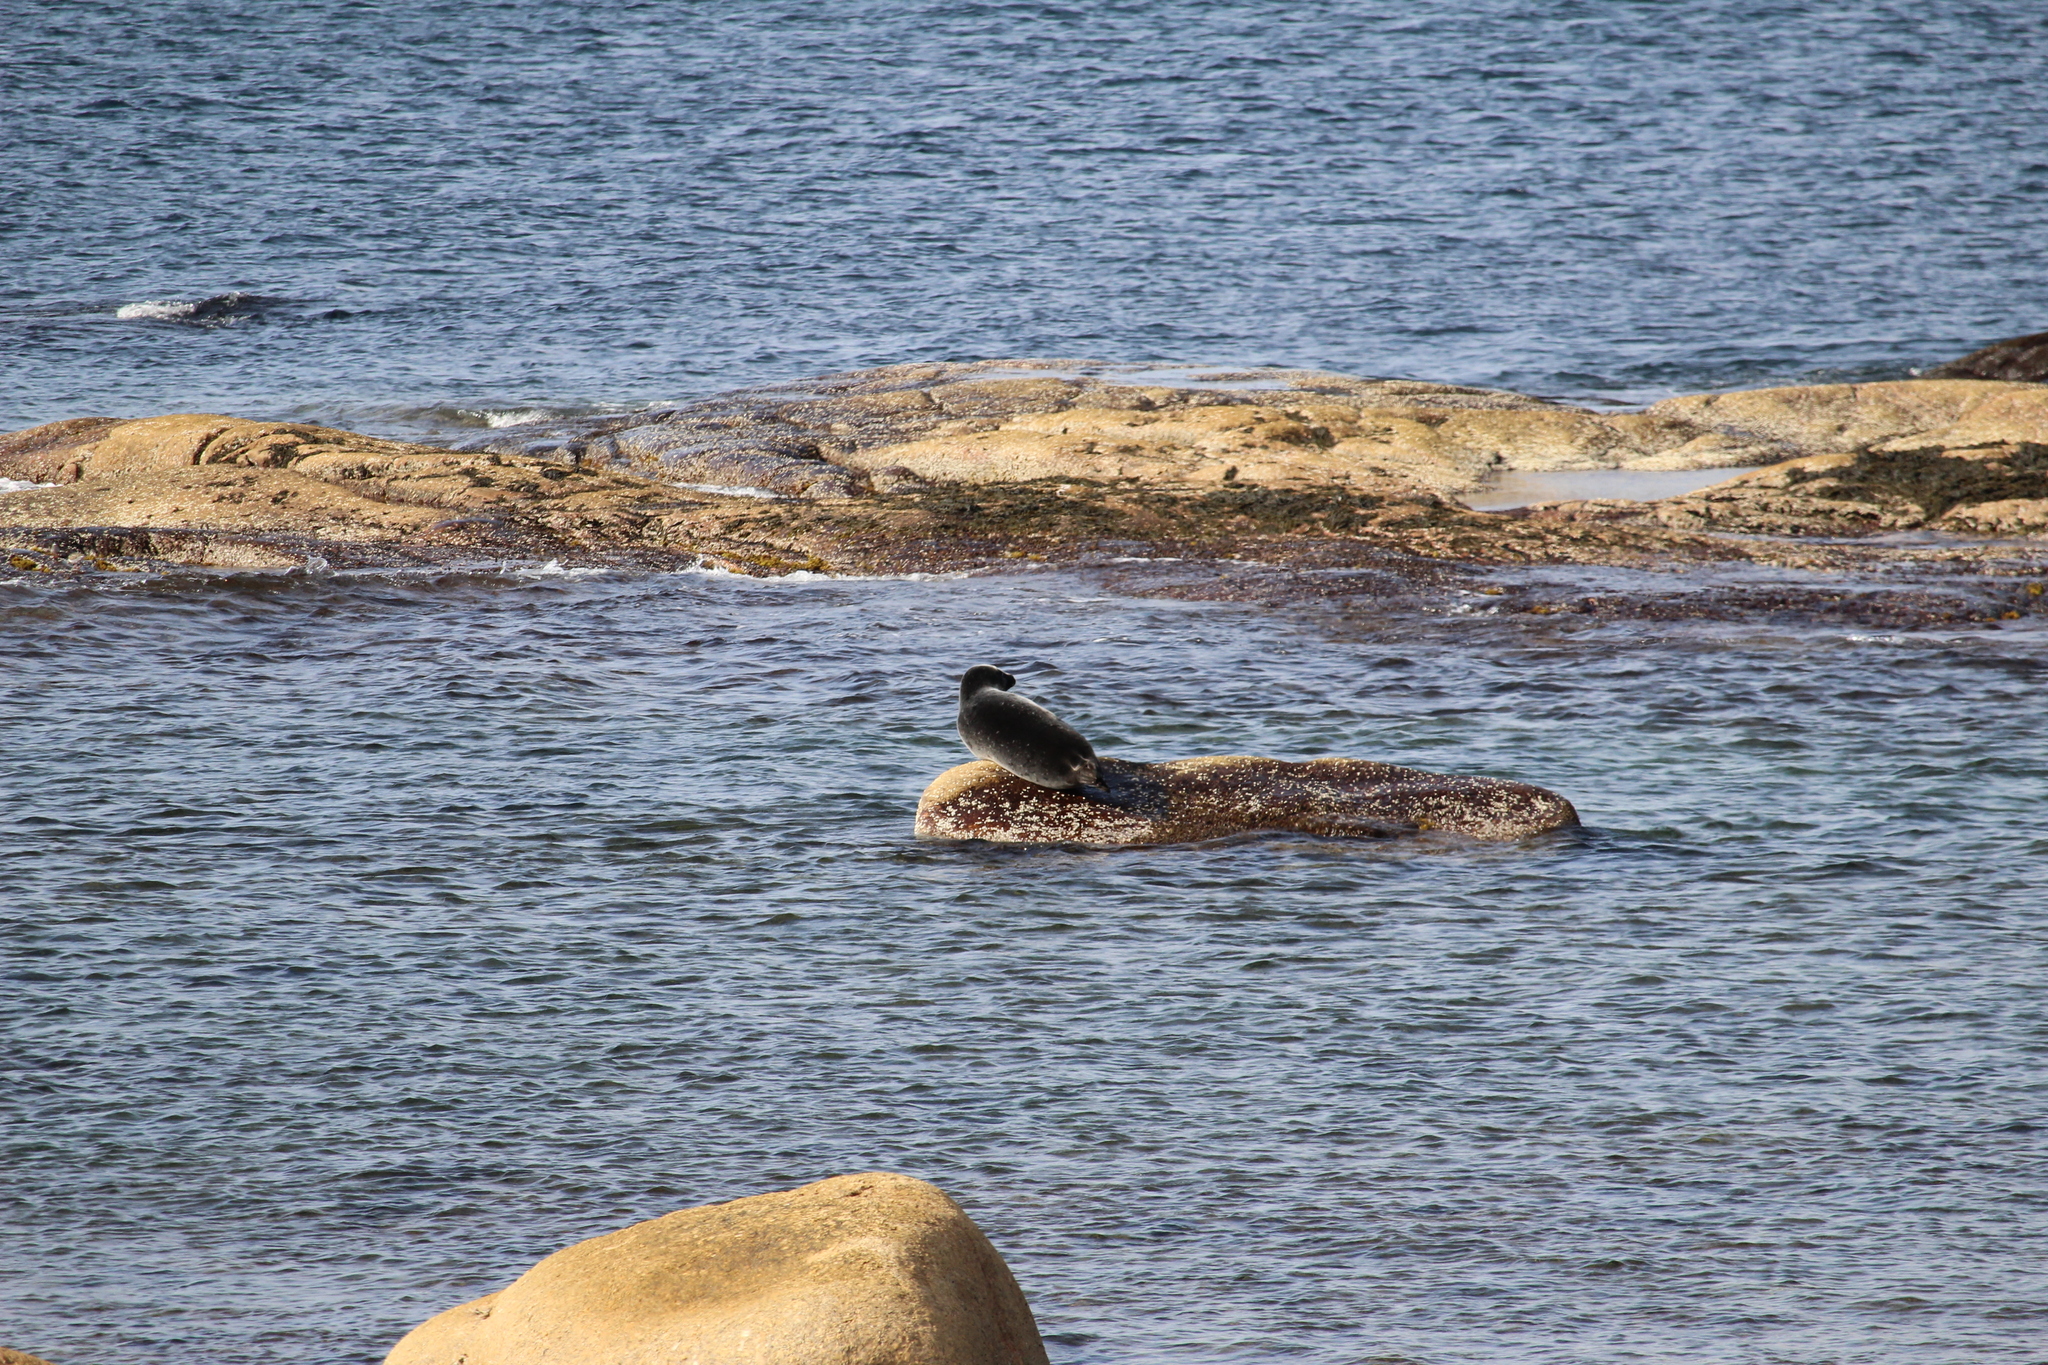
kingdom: Animalia
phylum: Chordata
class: Mammalia
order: Carnivora
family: Phocidae
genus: Phoca
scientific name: Phoca vitulina
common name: Harbor seal
